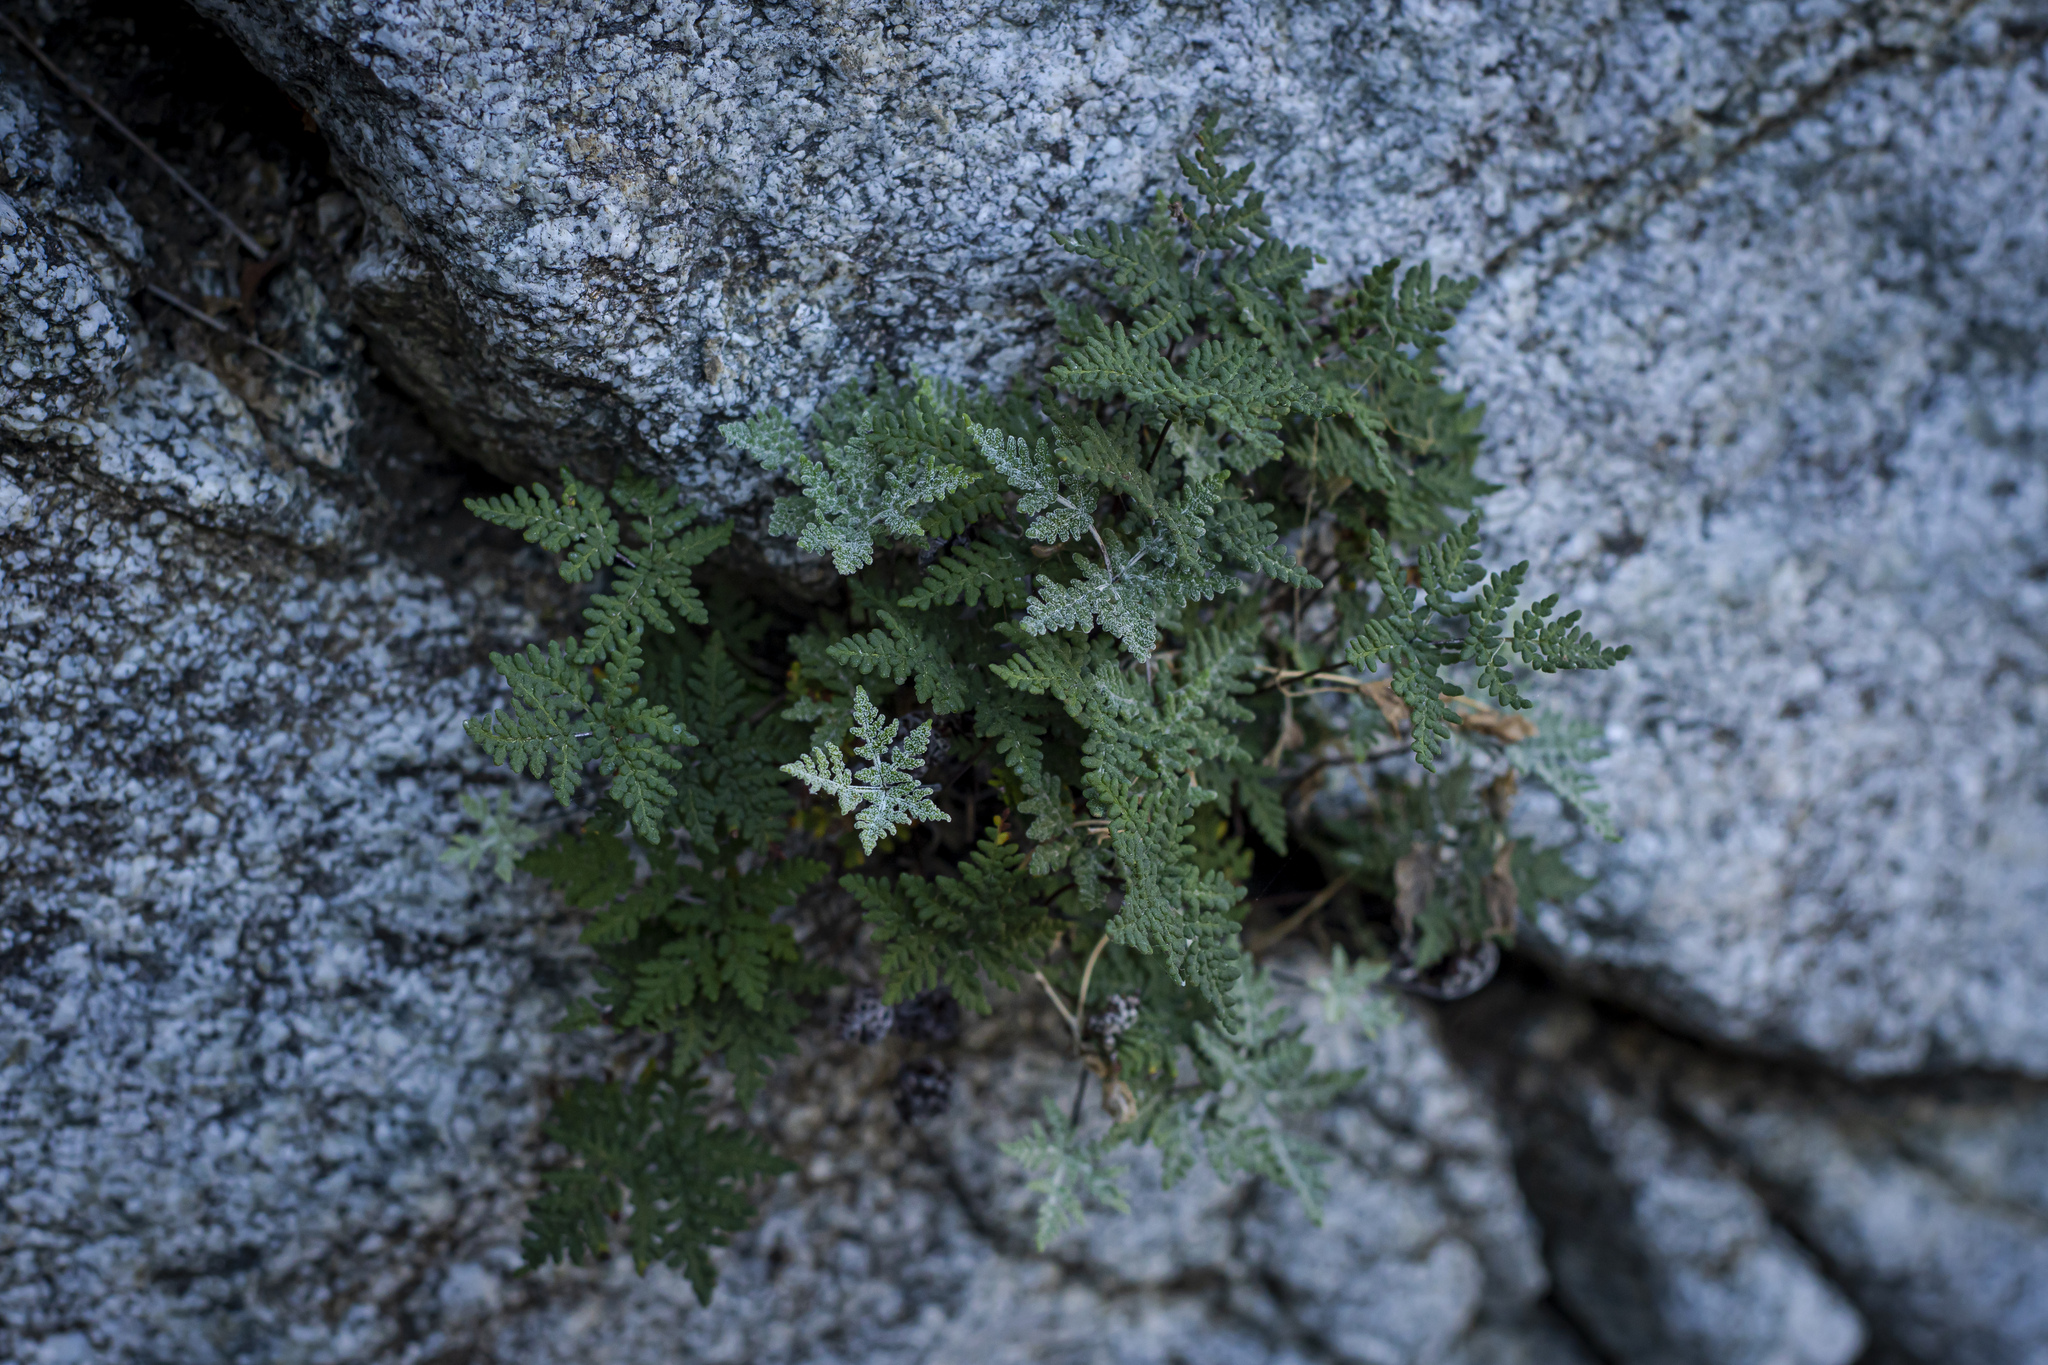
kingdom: Plantae
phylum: Tracheophyta
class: Polypodiopsida
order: Polypodiales
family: Pteridaceae
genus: Notholaena
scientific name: Notholaena californica
